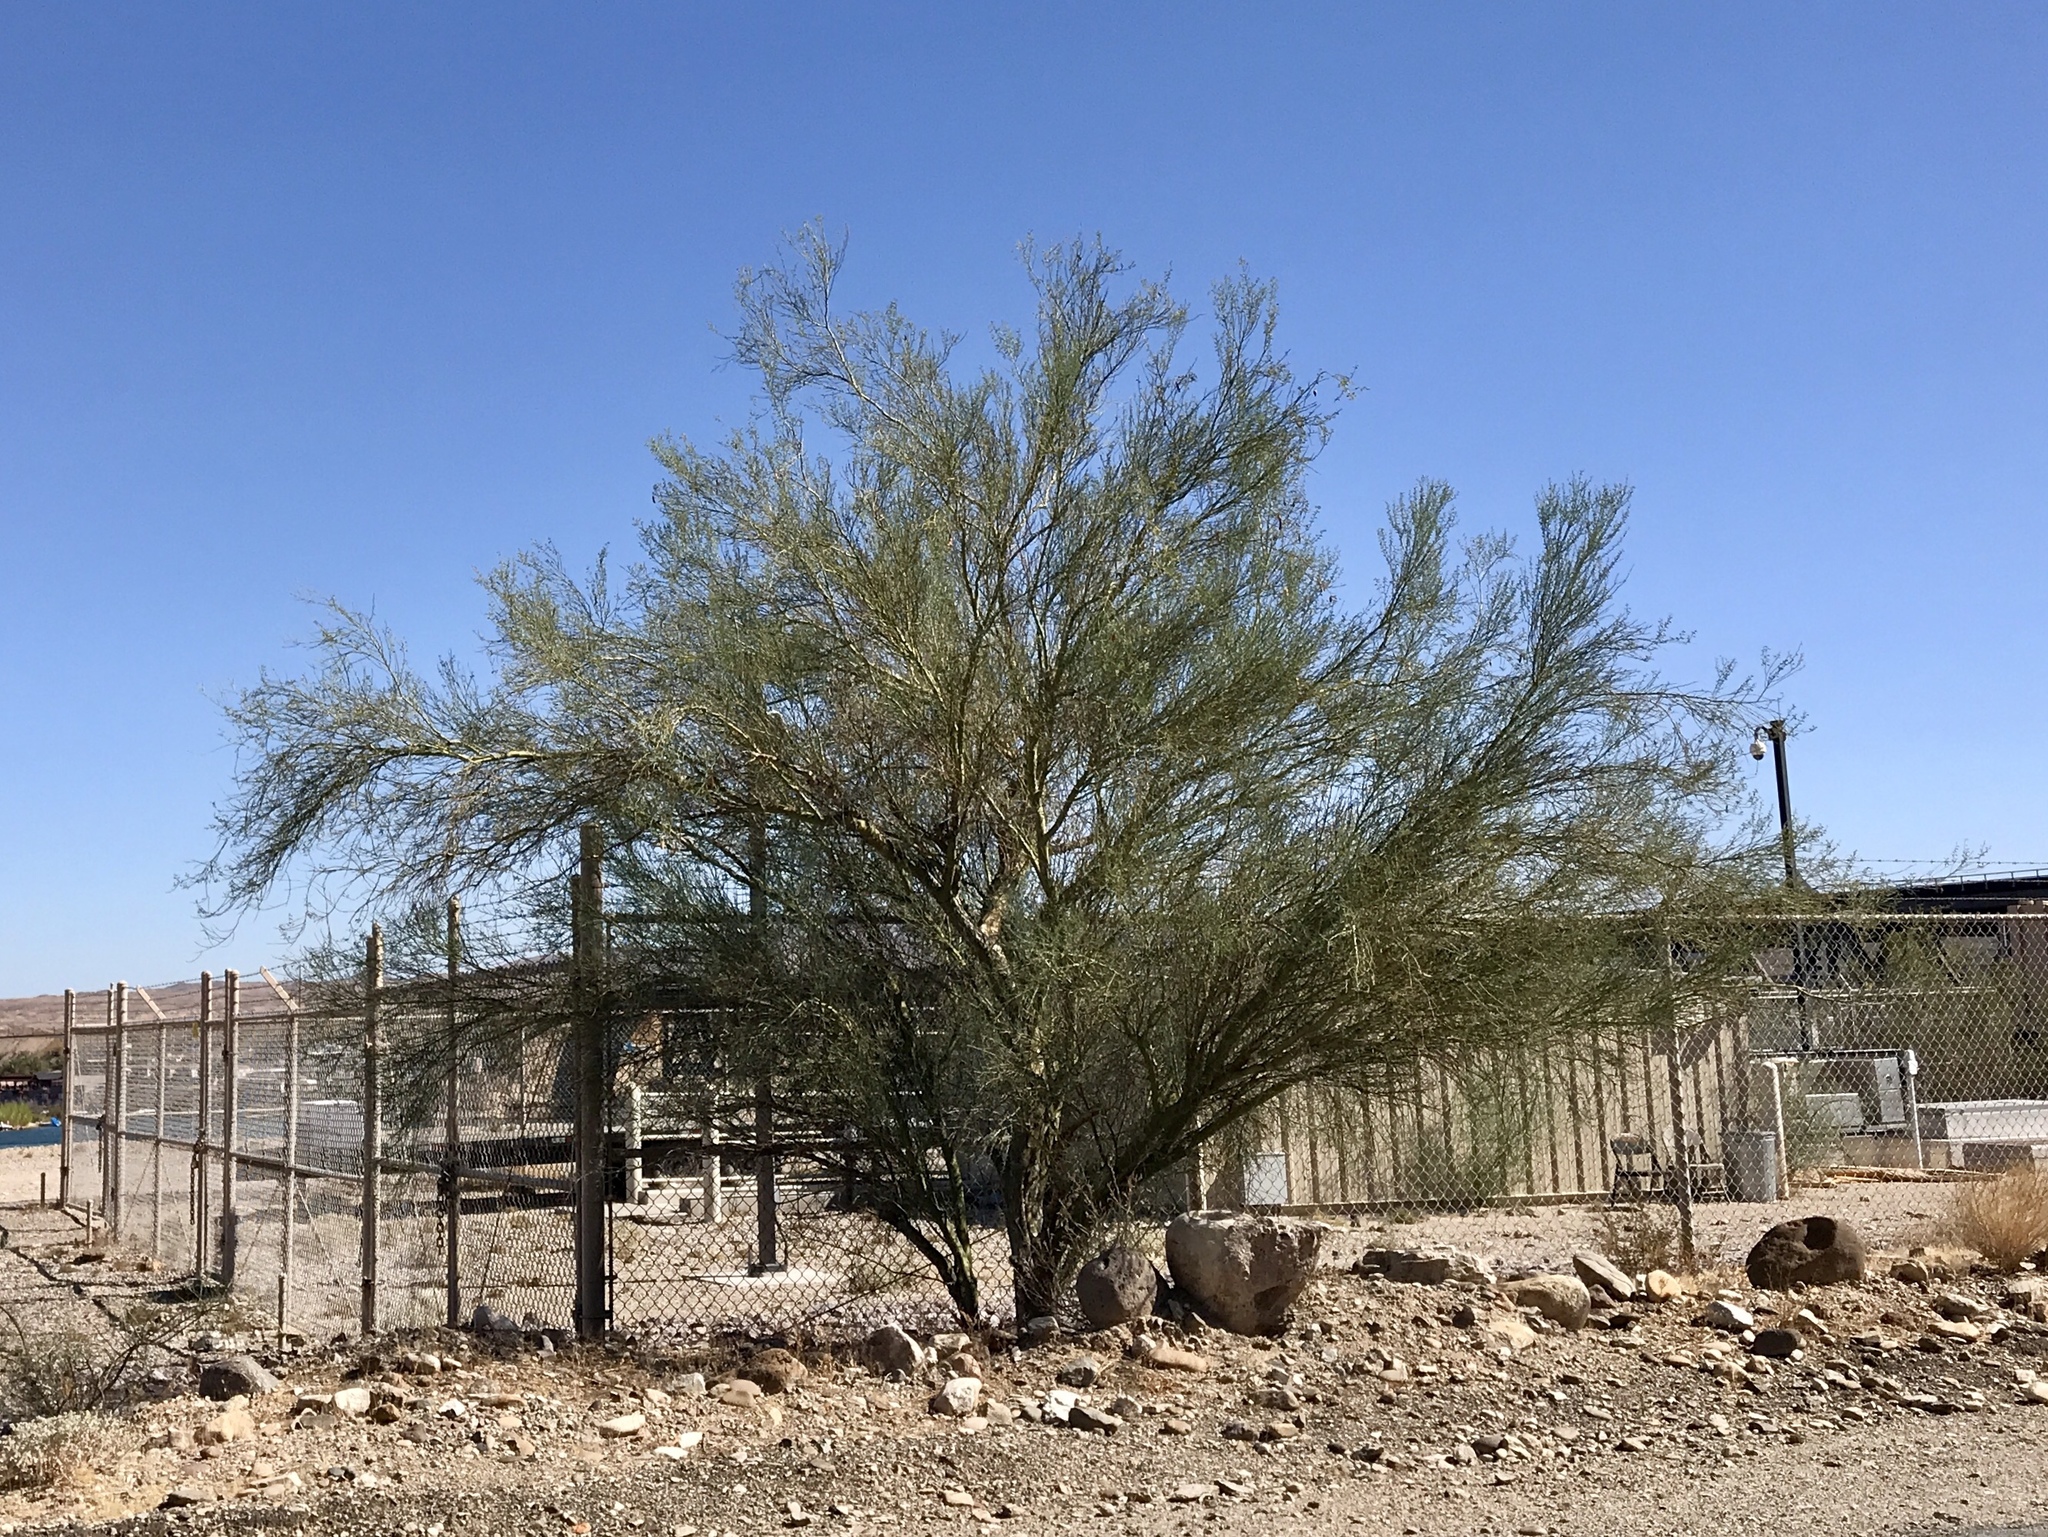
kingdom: Plantae
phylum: Tracheophyta
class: Magnoliopsida
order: Fabales
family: Fabaceae
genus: Parkinsonia
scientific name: Parkinsonia florida
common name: Blue paloverde
